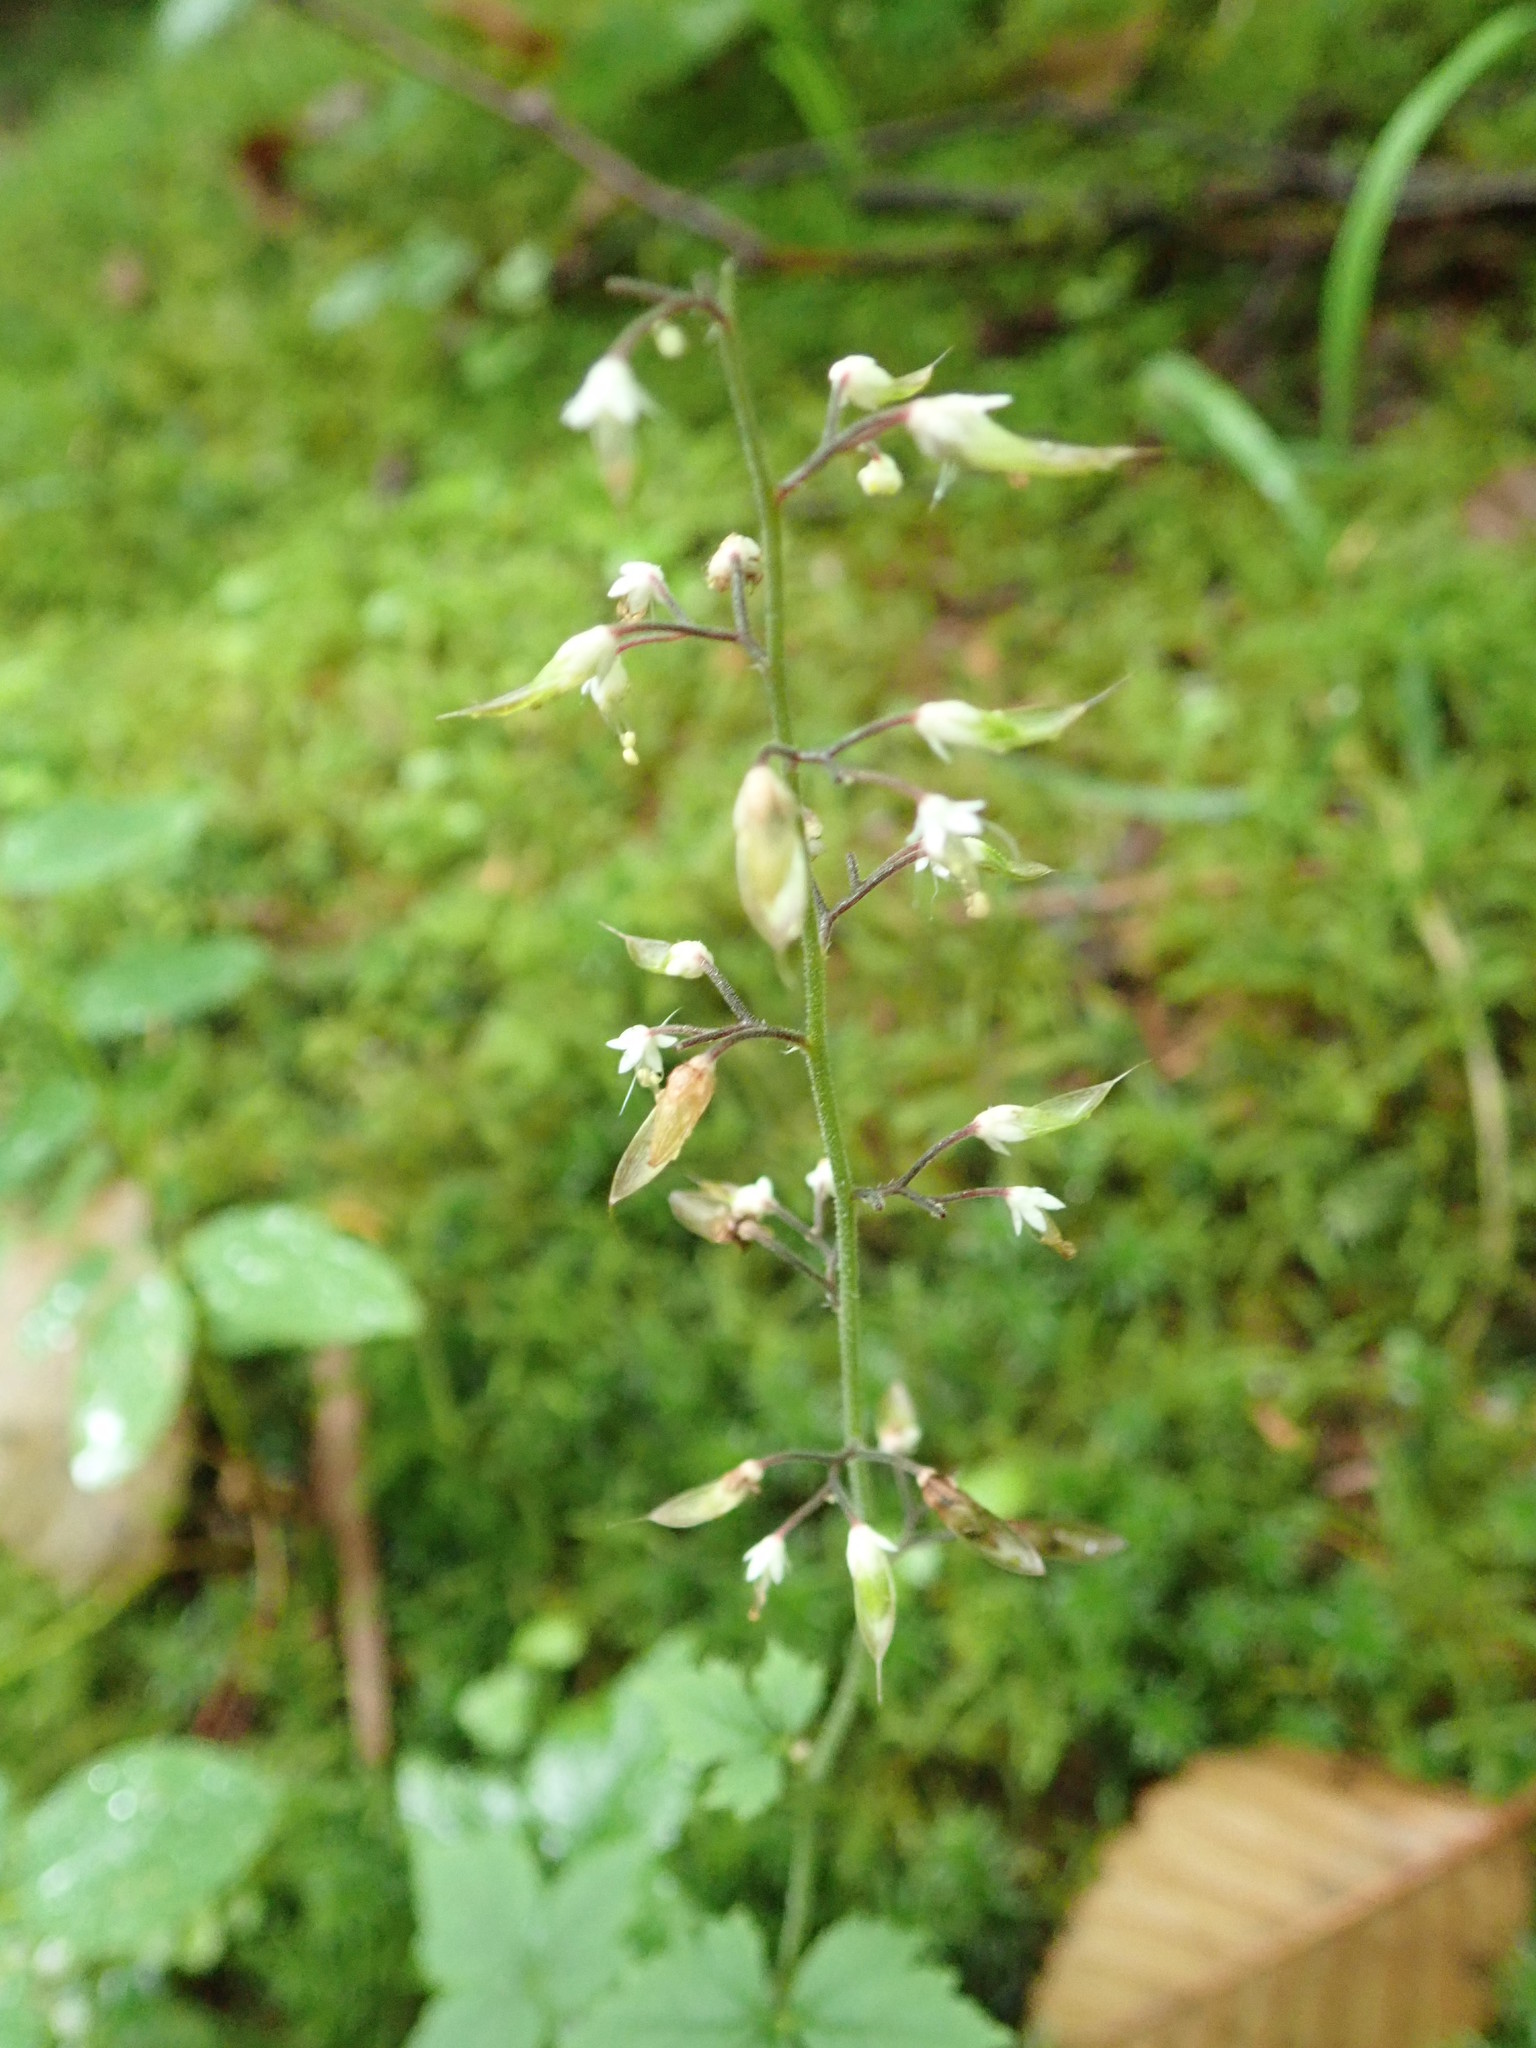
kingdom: Plantae
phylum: Tracheophyta
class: Magnoliopsida
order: Saxifragales
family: Saxifragaceae
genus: Tiarella
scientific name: Tiarella trifoliata
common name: Sugar-scoop
